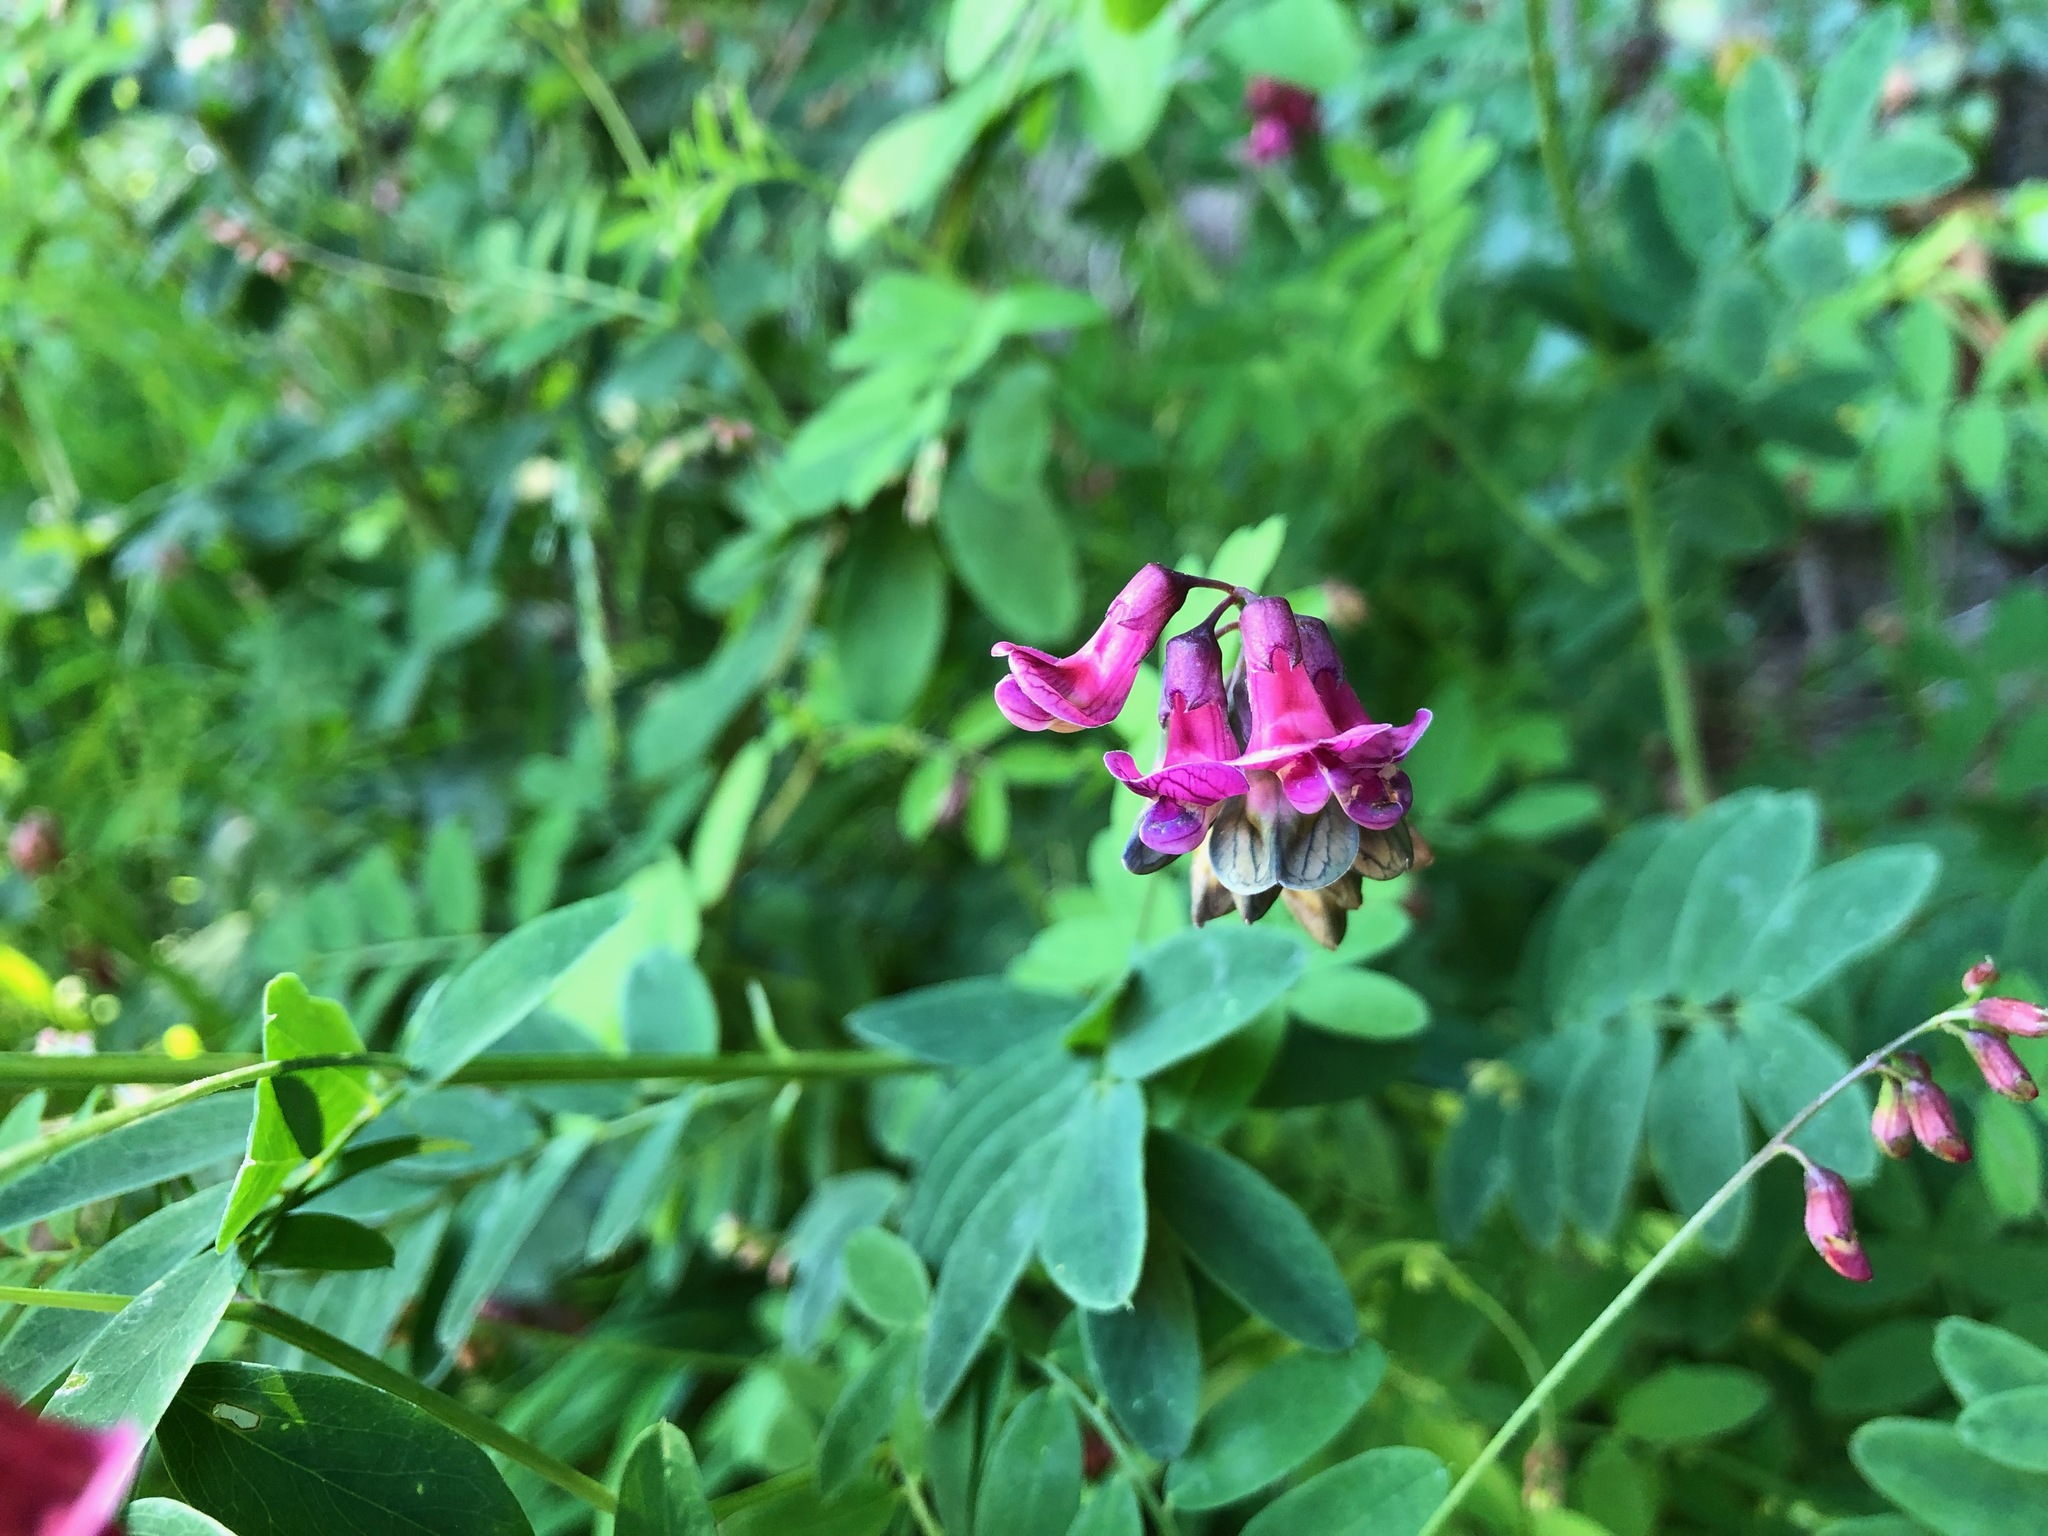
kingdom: Plantae
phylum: Tracheophyta
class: Magnoliopsida
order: Fabales
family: Fabaceae
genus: Lathyrus
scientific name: Lathyrus niger
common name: Black pea
